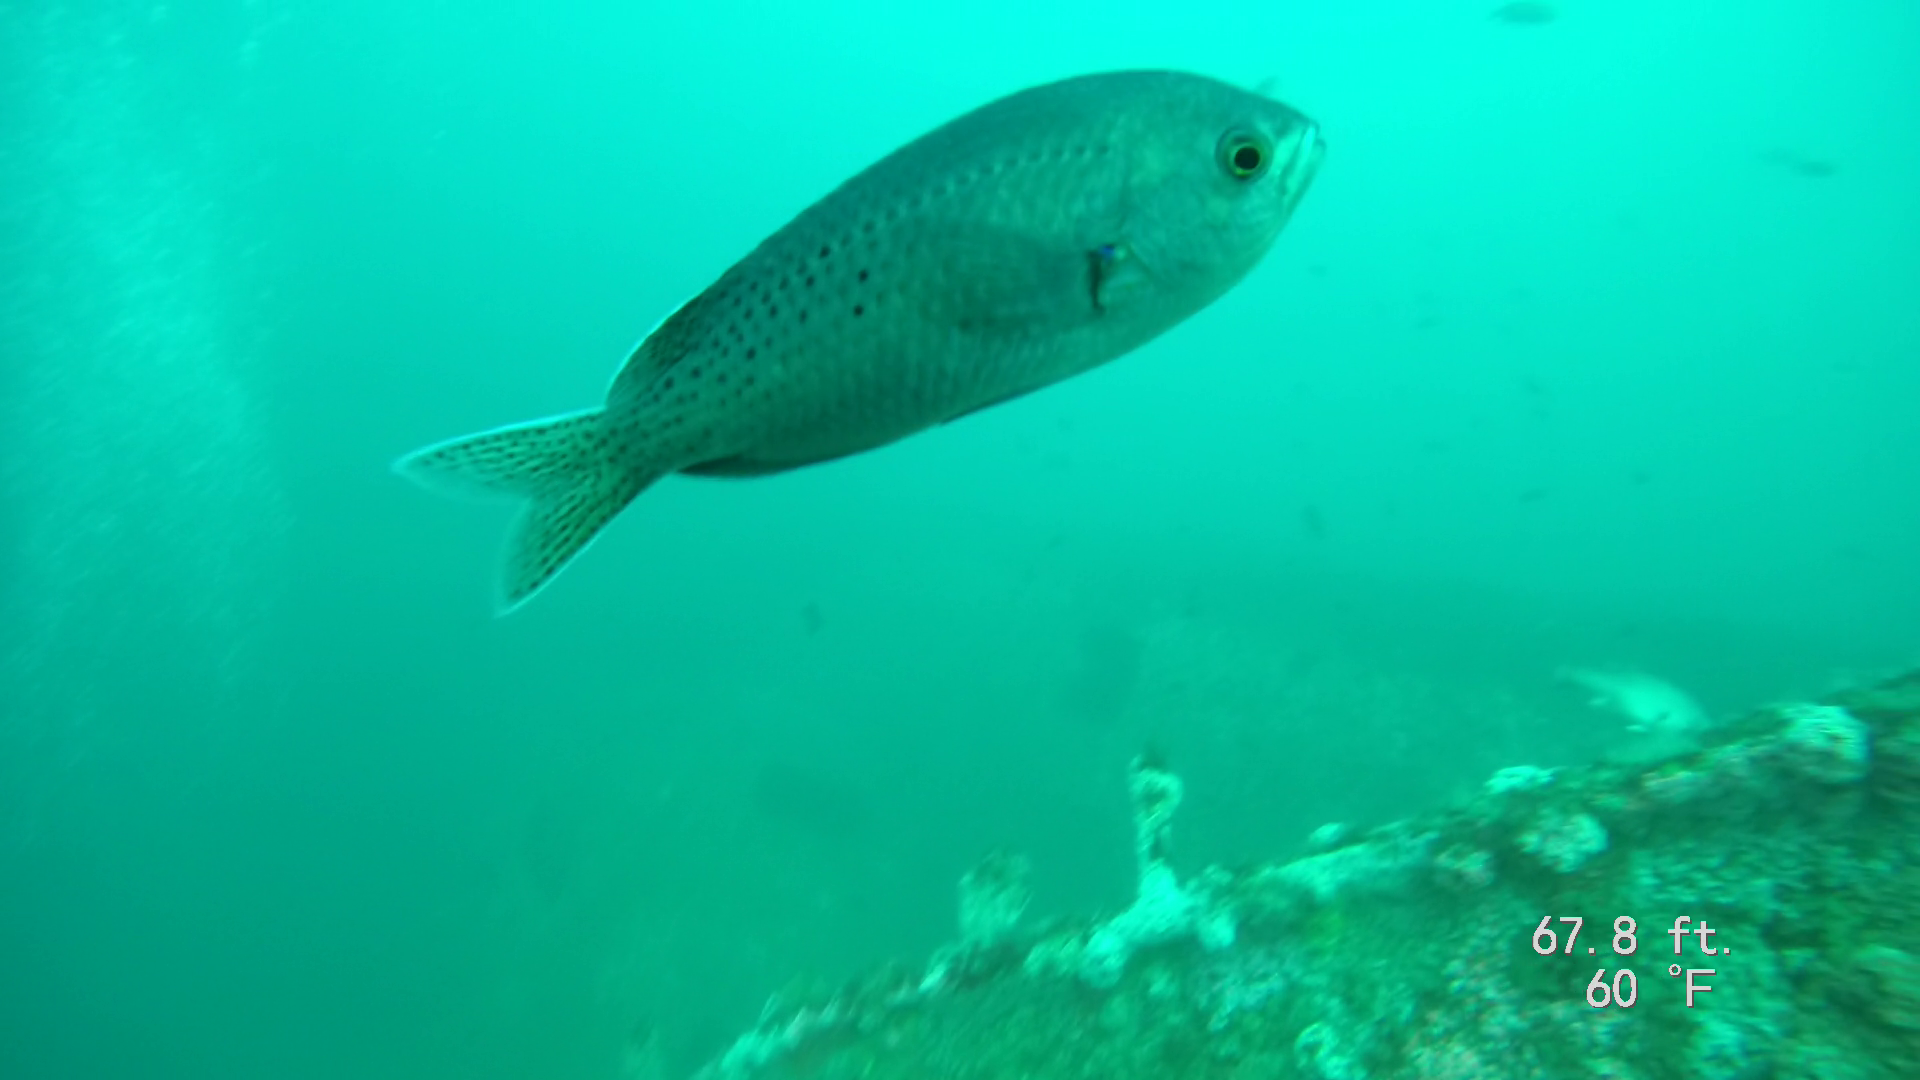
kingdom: Animalia
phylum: Chordata
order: Perciformes
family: Pomacentridae
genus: Chromis
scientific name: Chromis punctipinnis
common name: Blacksmith
